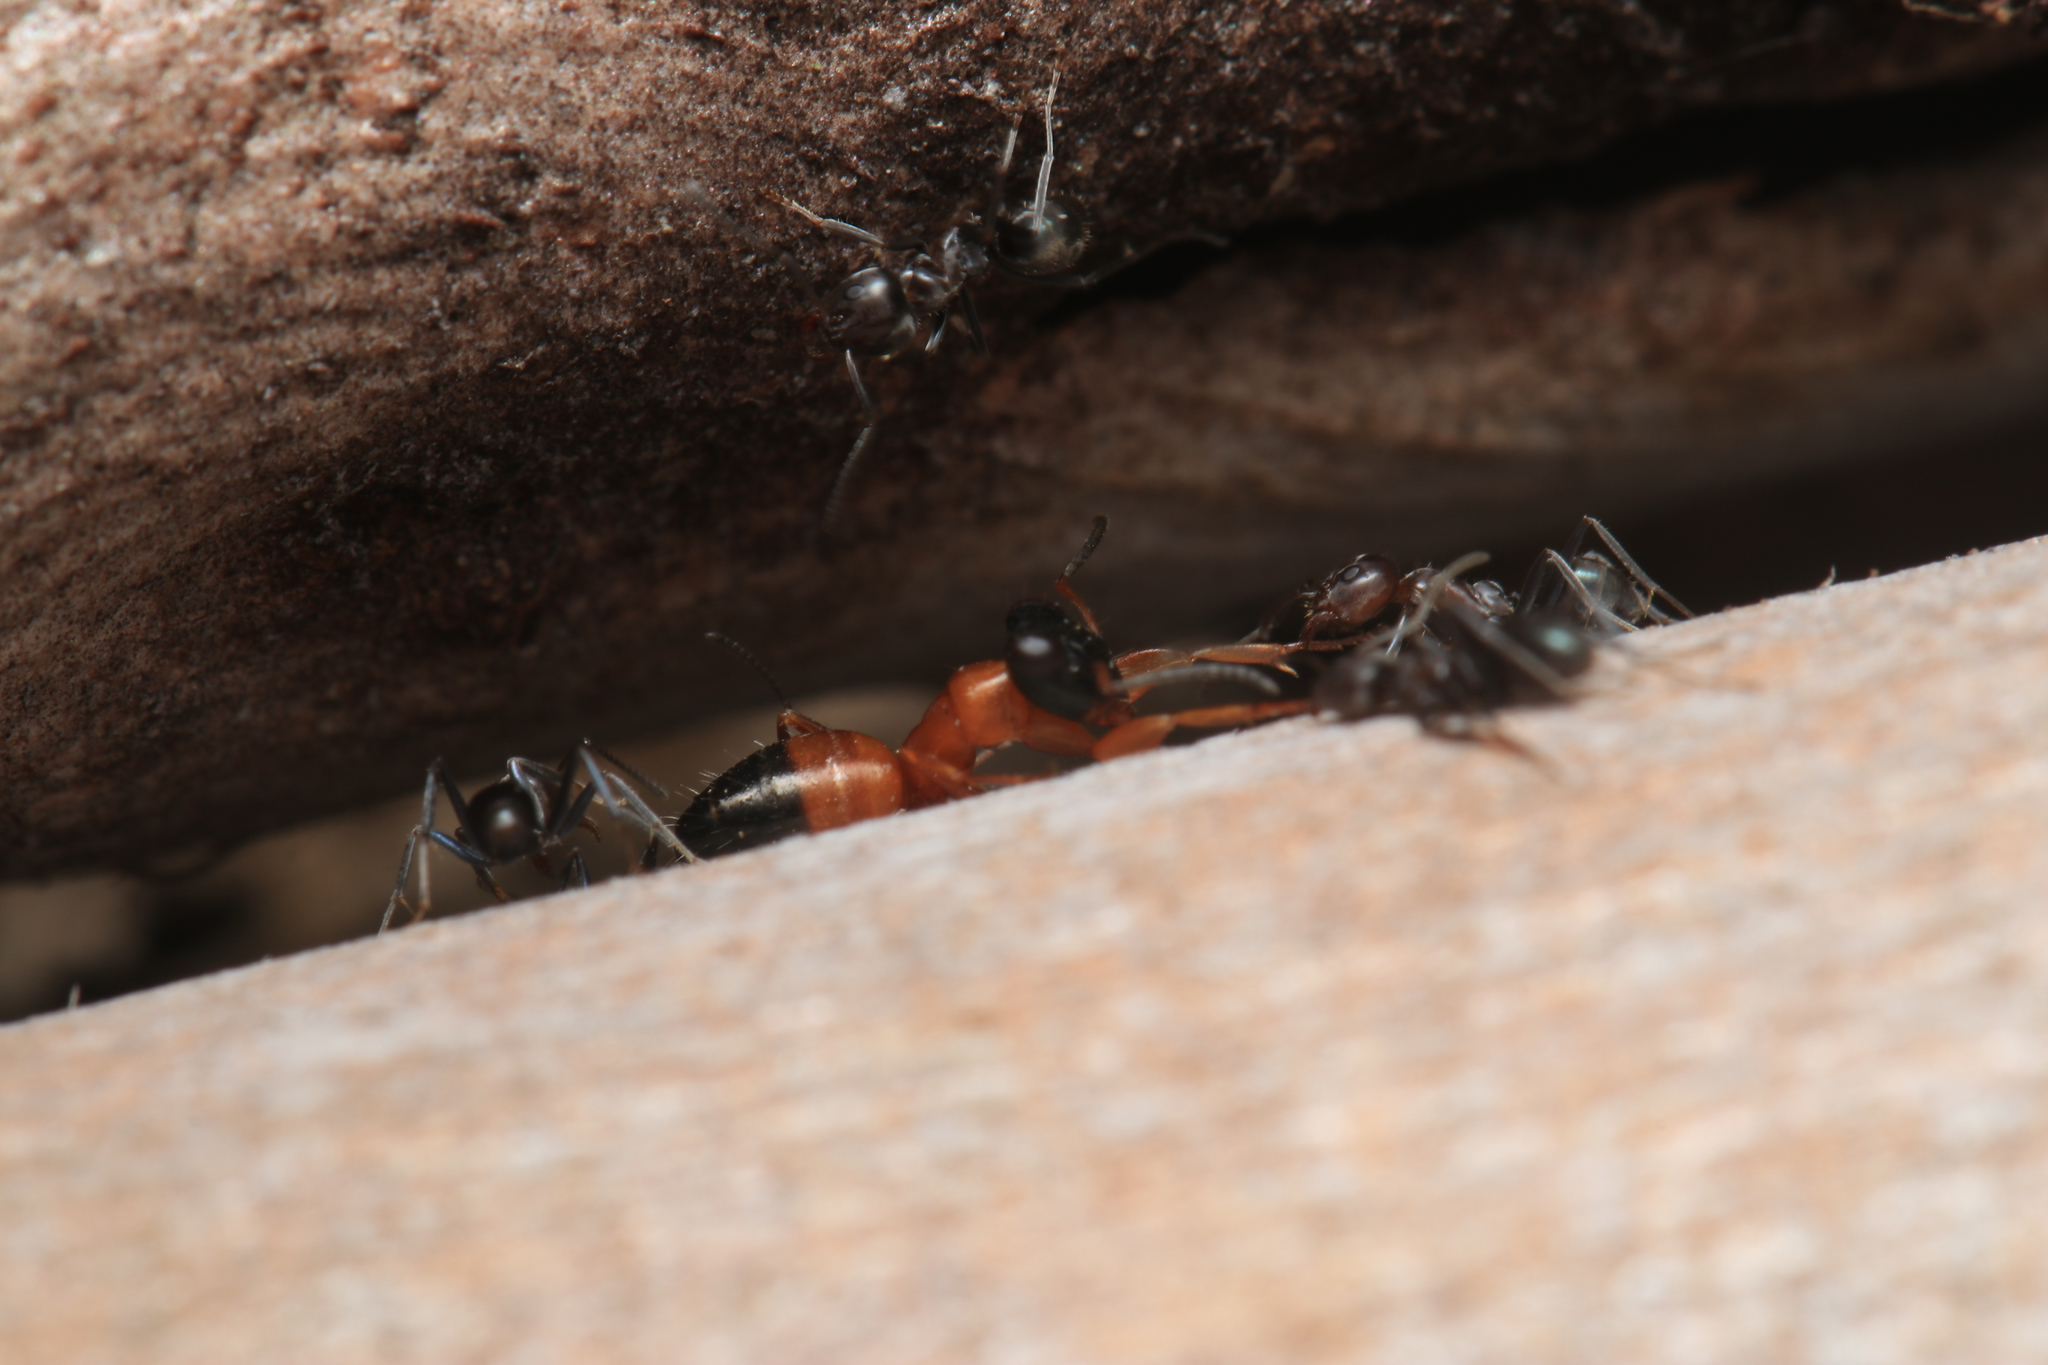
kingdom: Animalia
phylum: Arthropoda
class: Insecta
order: Hymenoptera
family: Formicidae
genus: Opisthopsis
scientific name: Opisthopsis rufithorax
